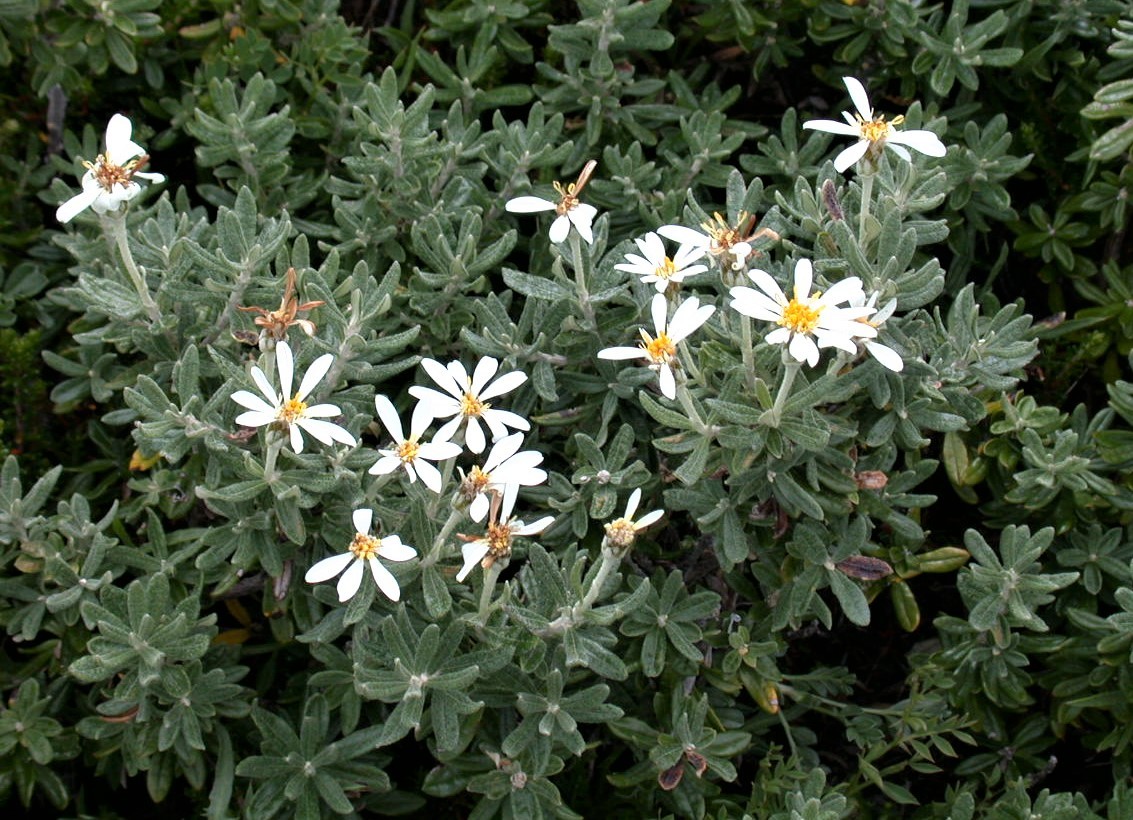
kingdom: Plantae
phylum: Tracheophyta
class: Magnoliopsida
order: Asterales
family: Asteraceae
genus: Chiliotrichum
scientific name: Chiliotrichum diffusum
